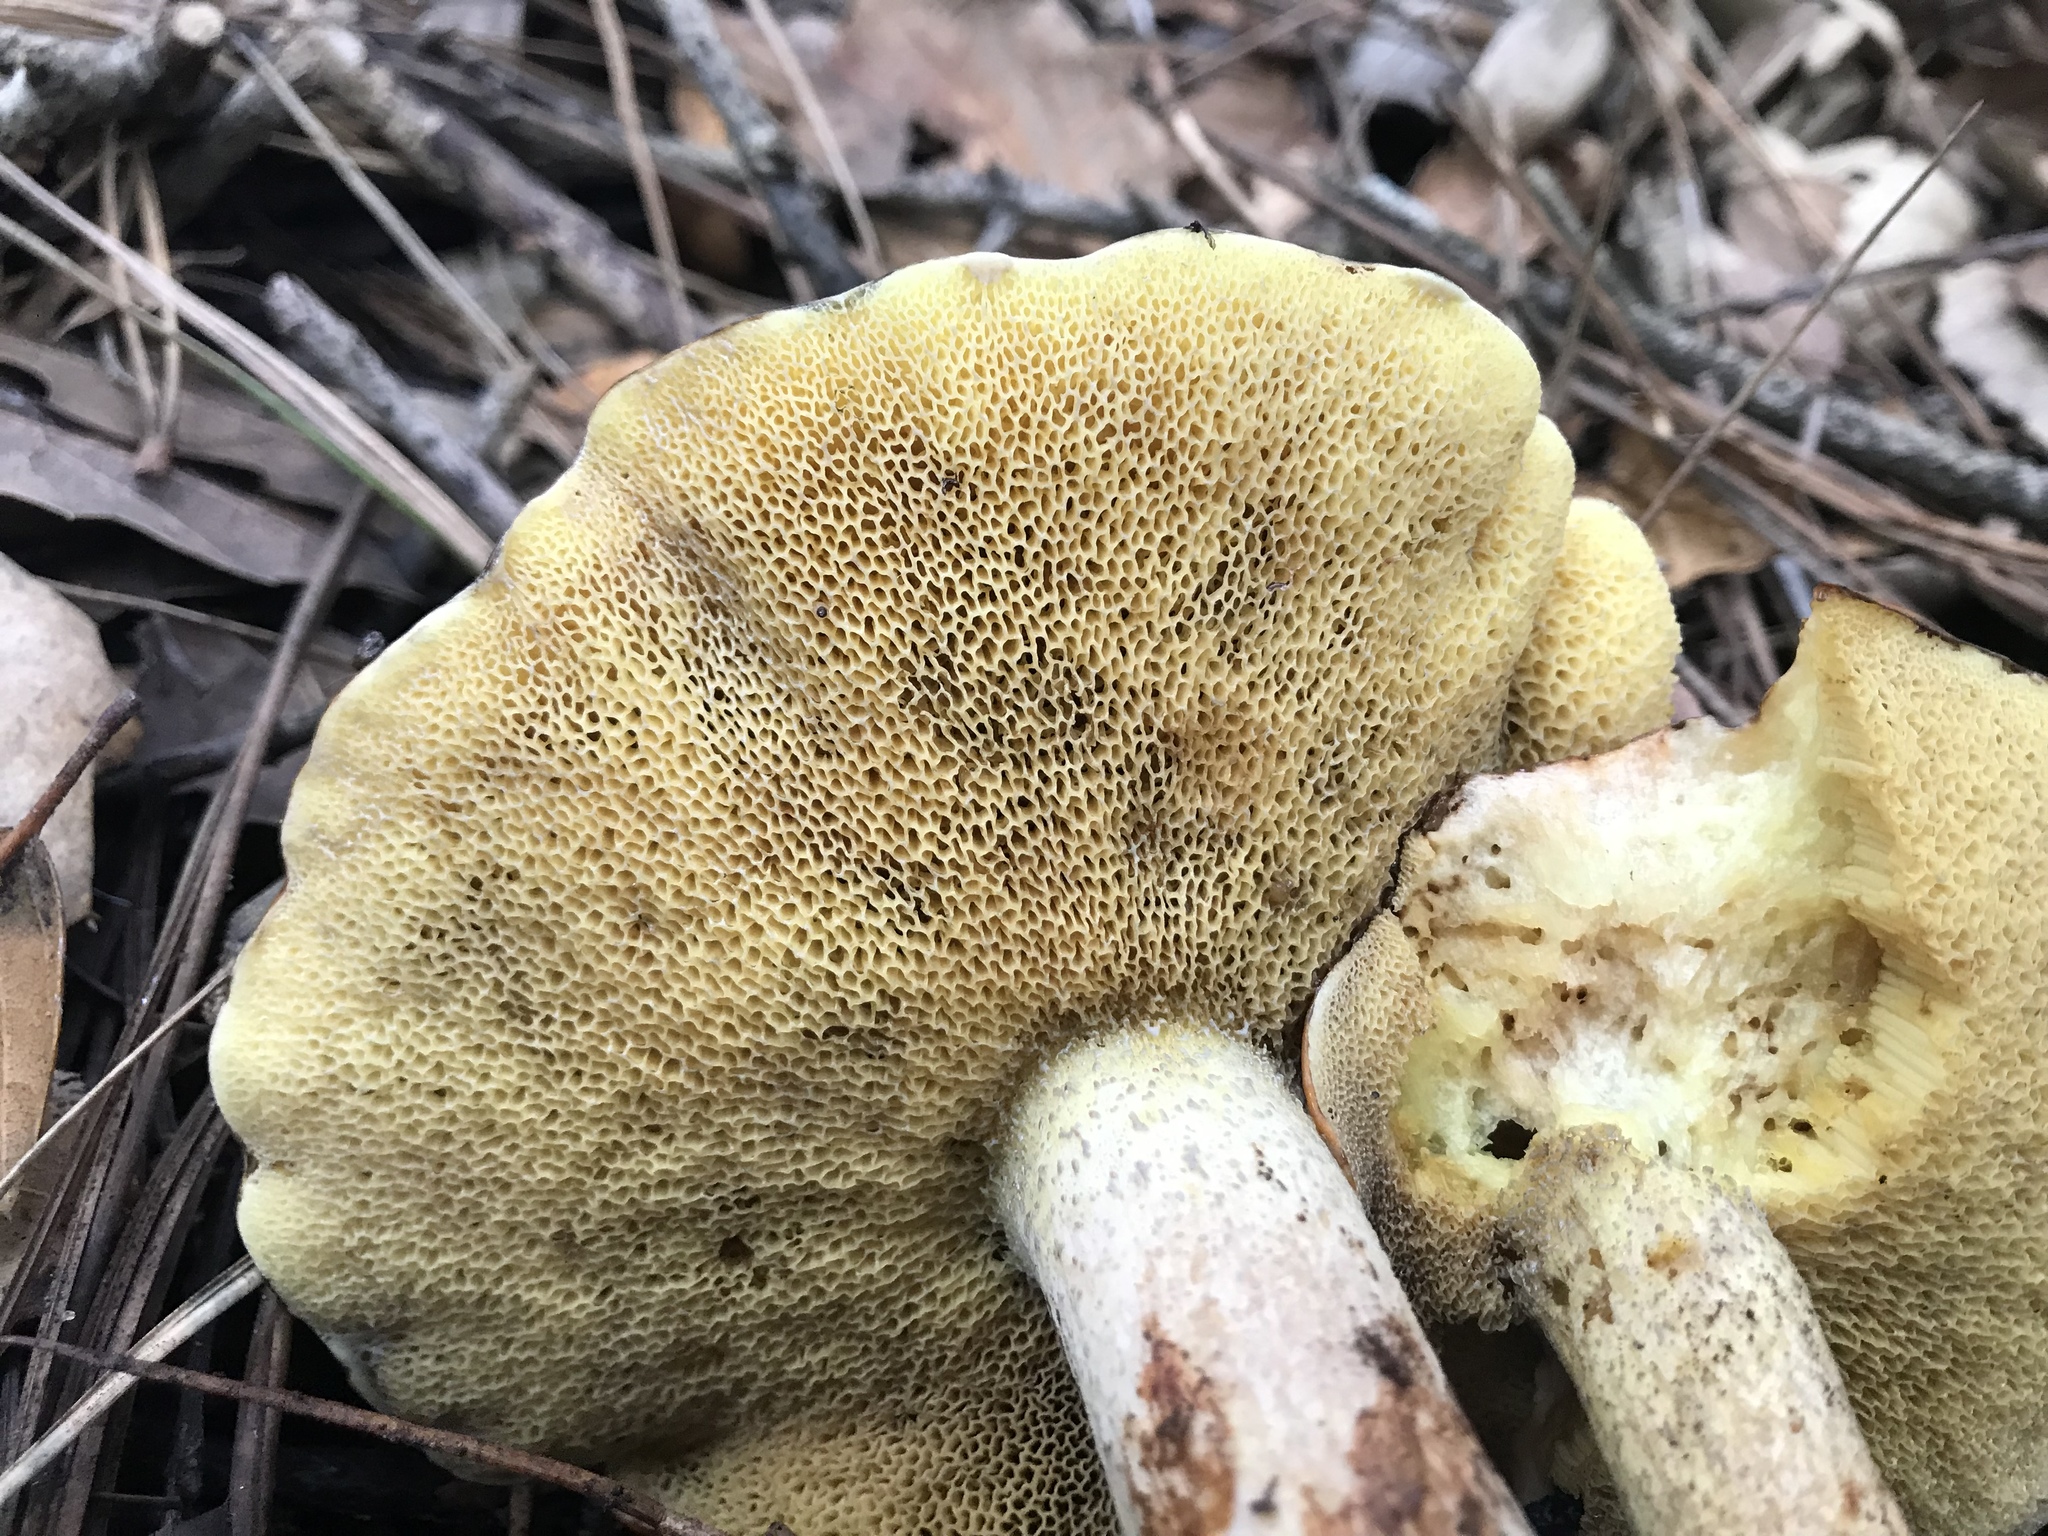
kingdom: Fungi
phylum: Basidiomycota
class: Agaricomycetes
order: Boletales
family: Suillaceae
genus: Suillus
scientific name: Suillus pungens
